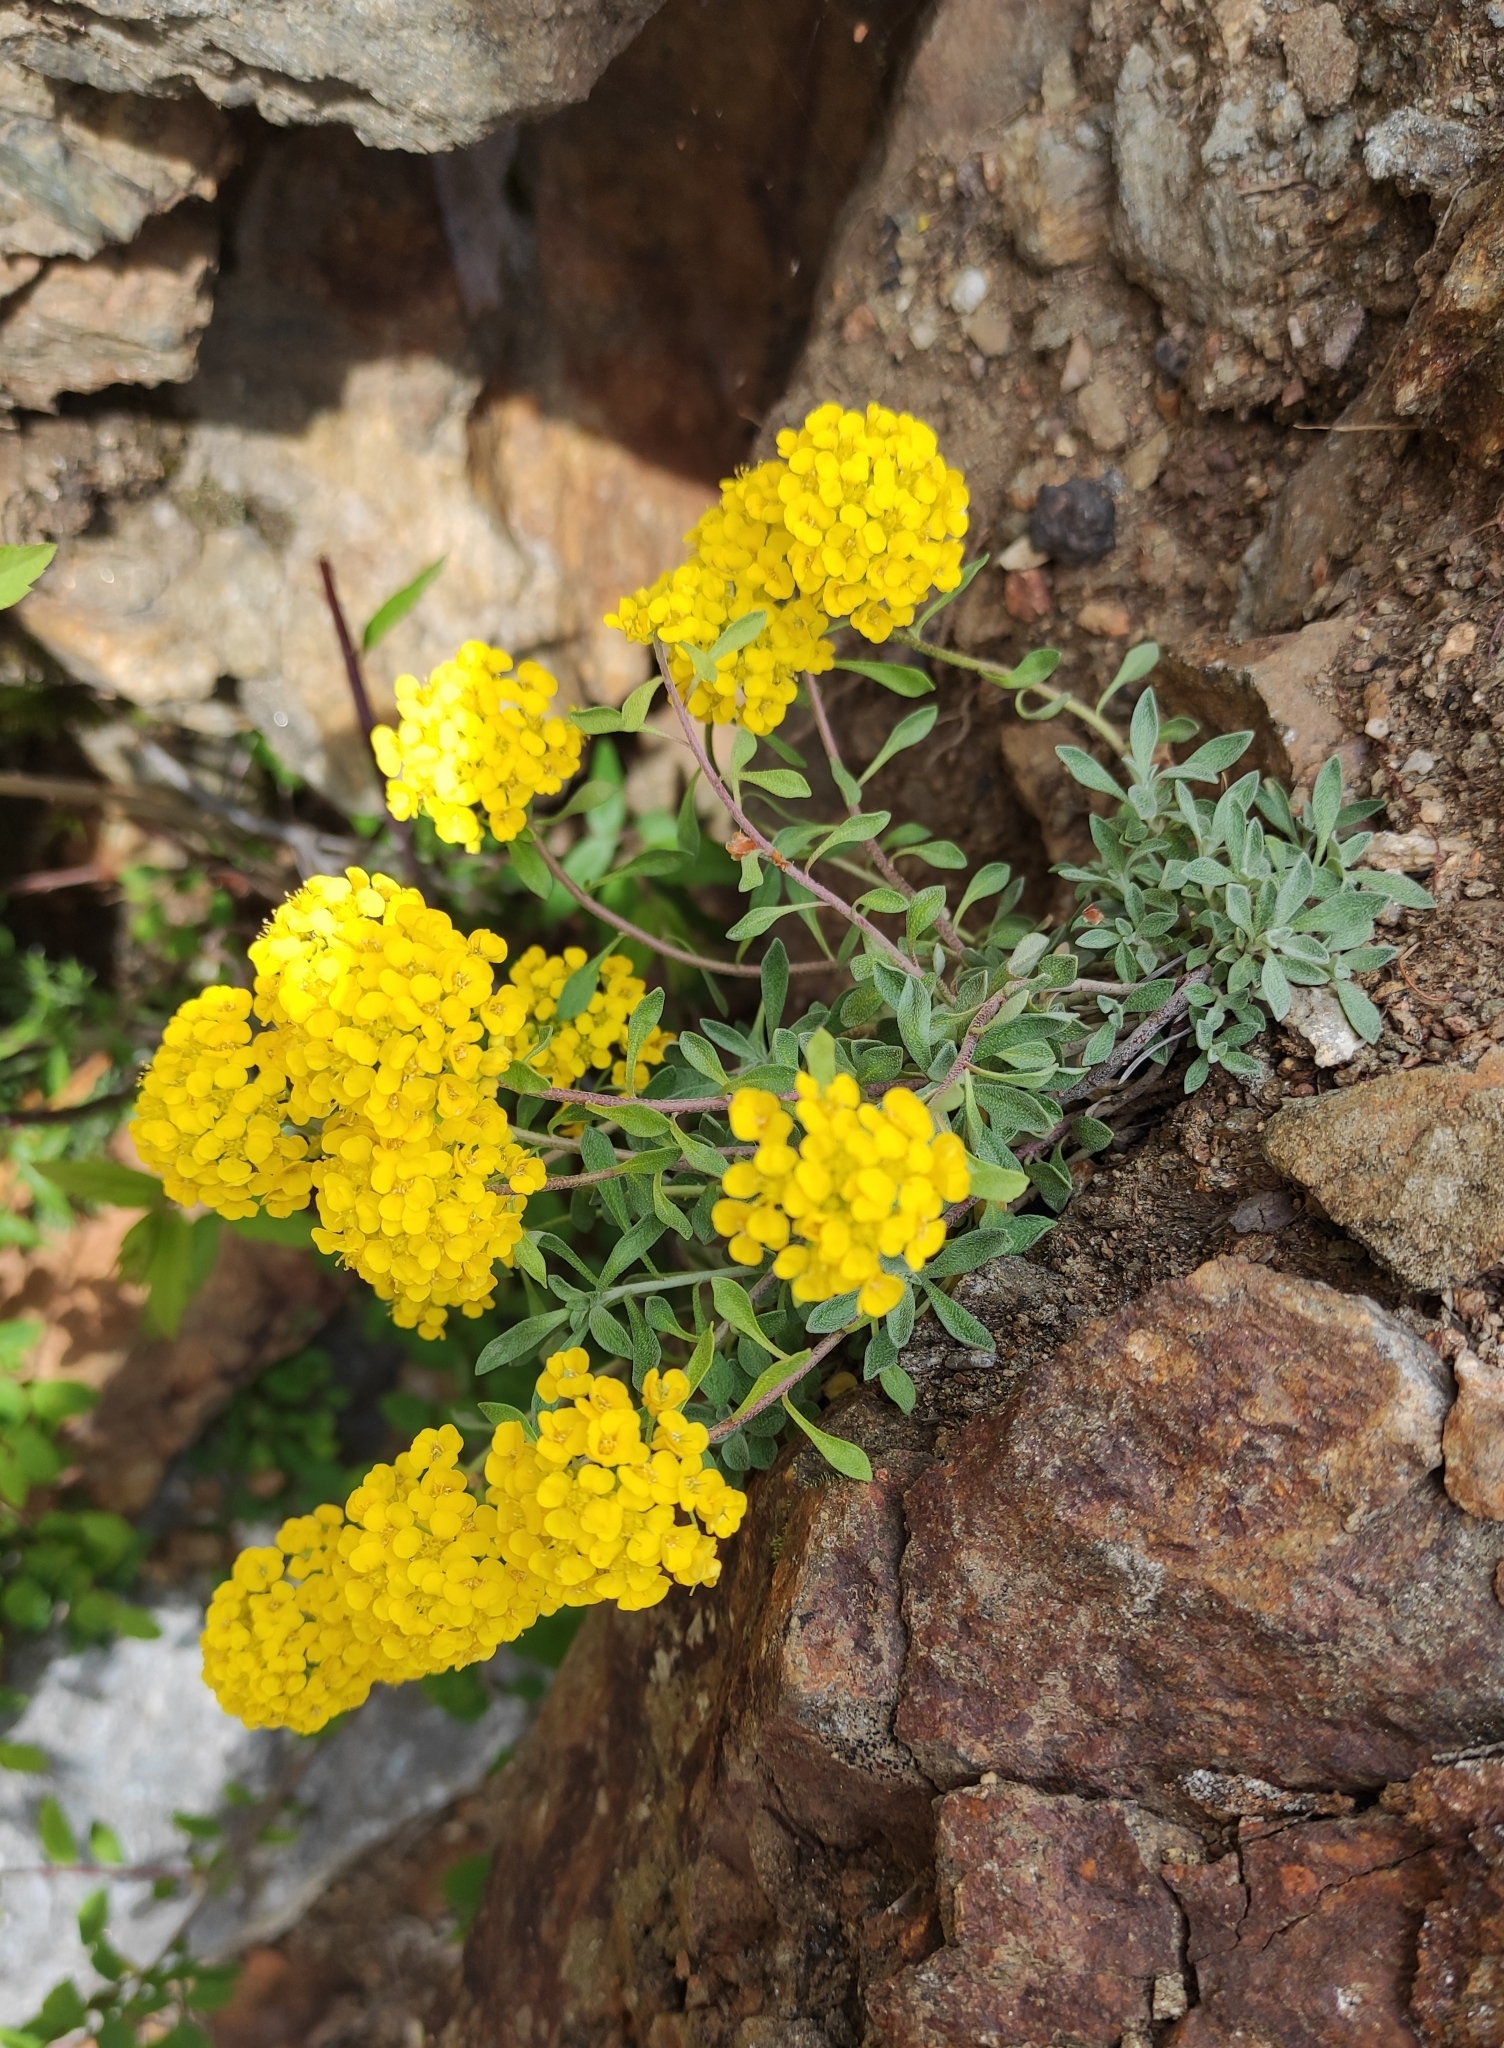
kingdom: Plantae
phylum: Tracheophyta
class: Magnoliopsida
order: Brassicales
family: Brassicaceae
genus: Odontarrhena
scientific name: Odontarrhena obovata
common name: American alyssum
